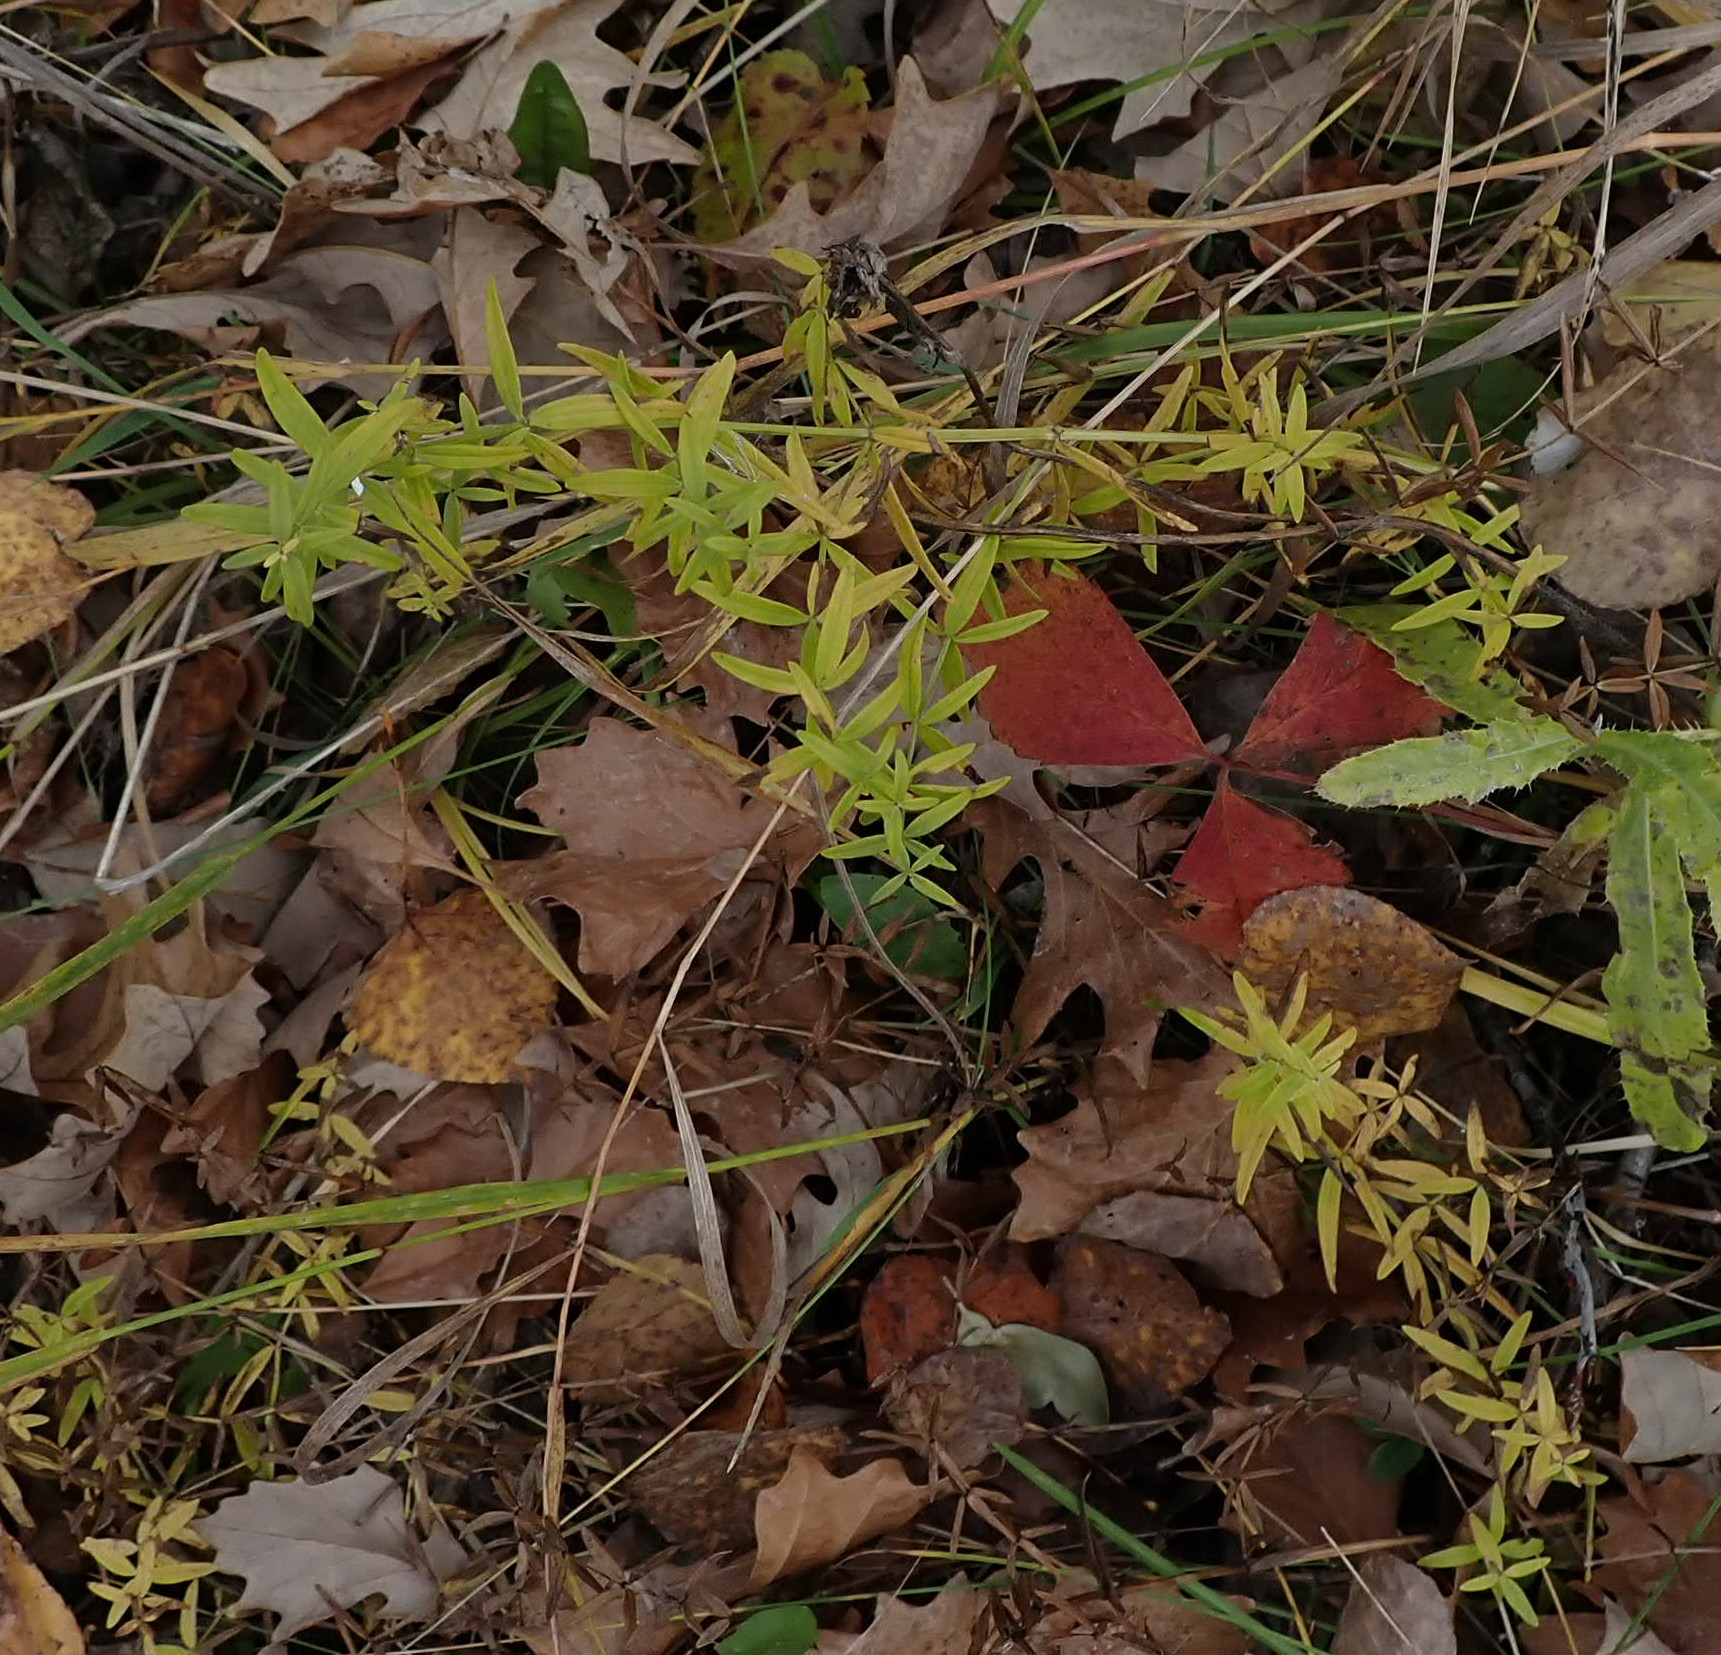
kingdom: Plantae
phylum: Tracheophyta
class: Magnoliopsida
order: Gentianales
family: Rubiaceae
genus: Galium
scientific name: Galium boreale
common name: Northern bedstraw
